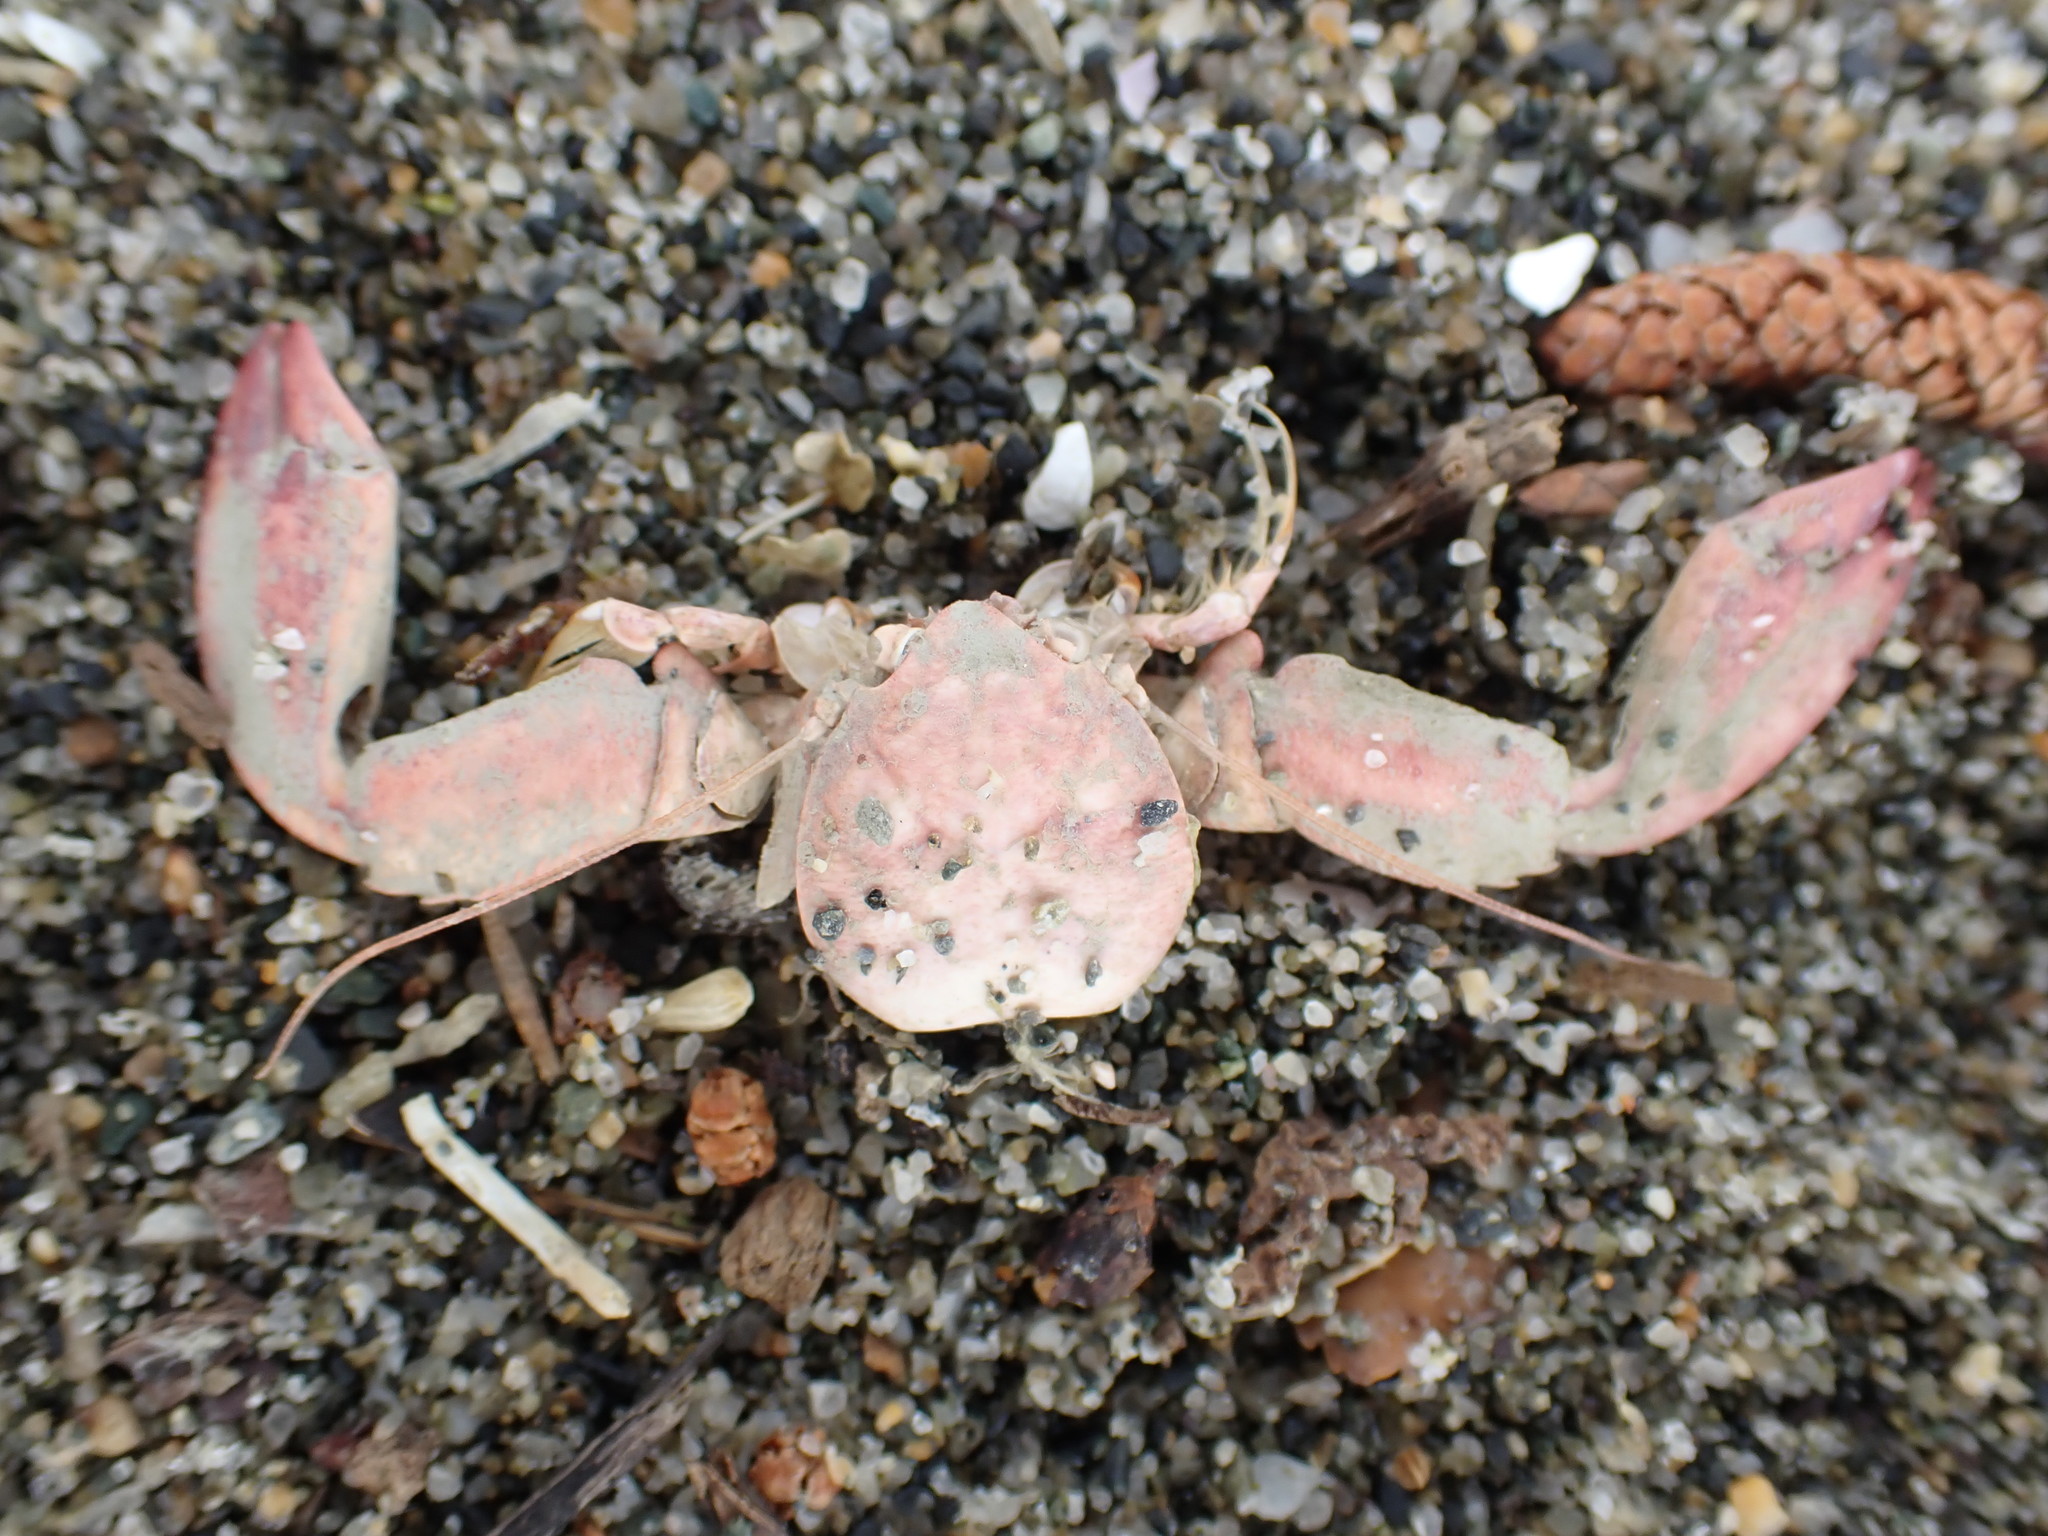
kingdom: Animalia
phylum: Arthropoda
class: Malacostraca
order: Decapoda
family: Porcellanidae
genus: Petrolisthes
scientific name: Petrolisthes elongatus
